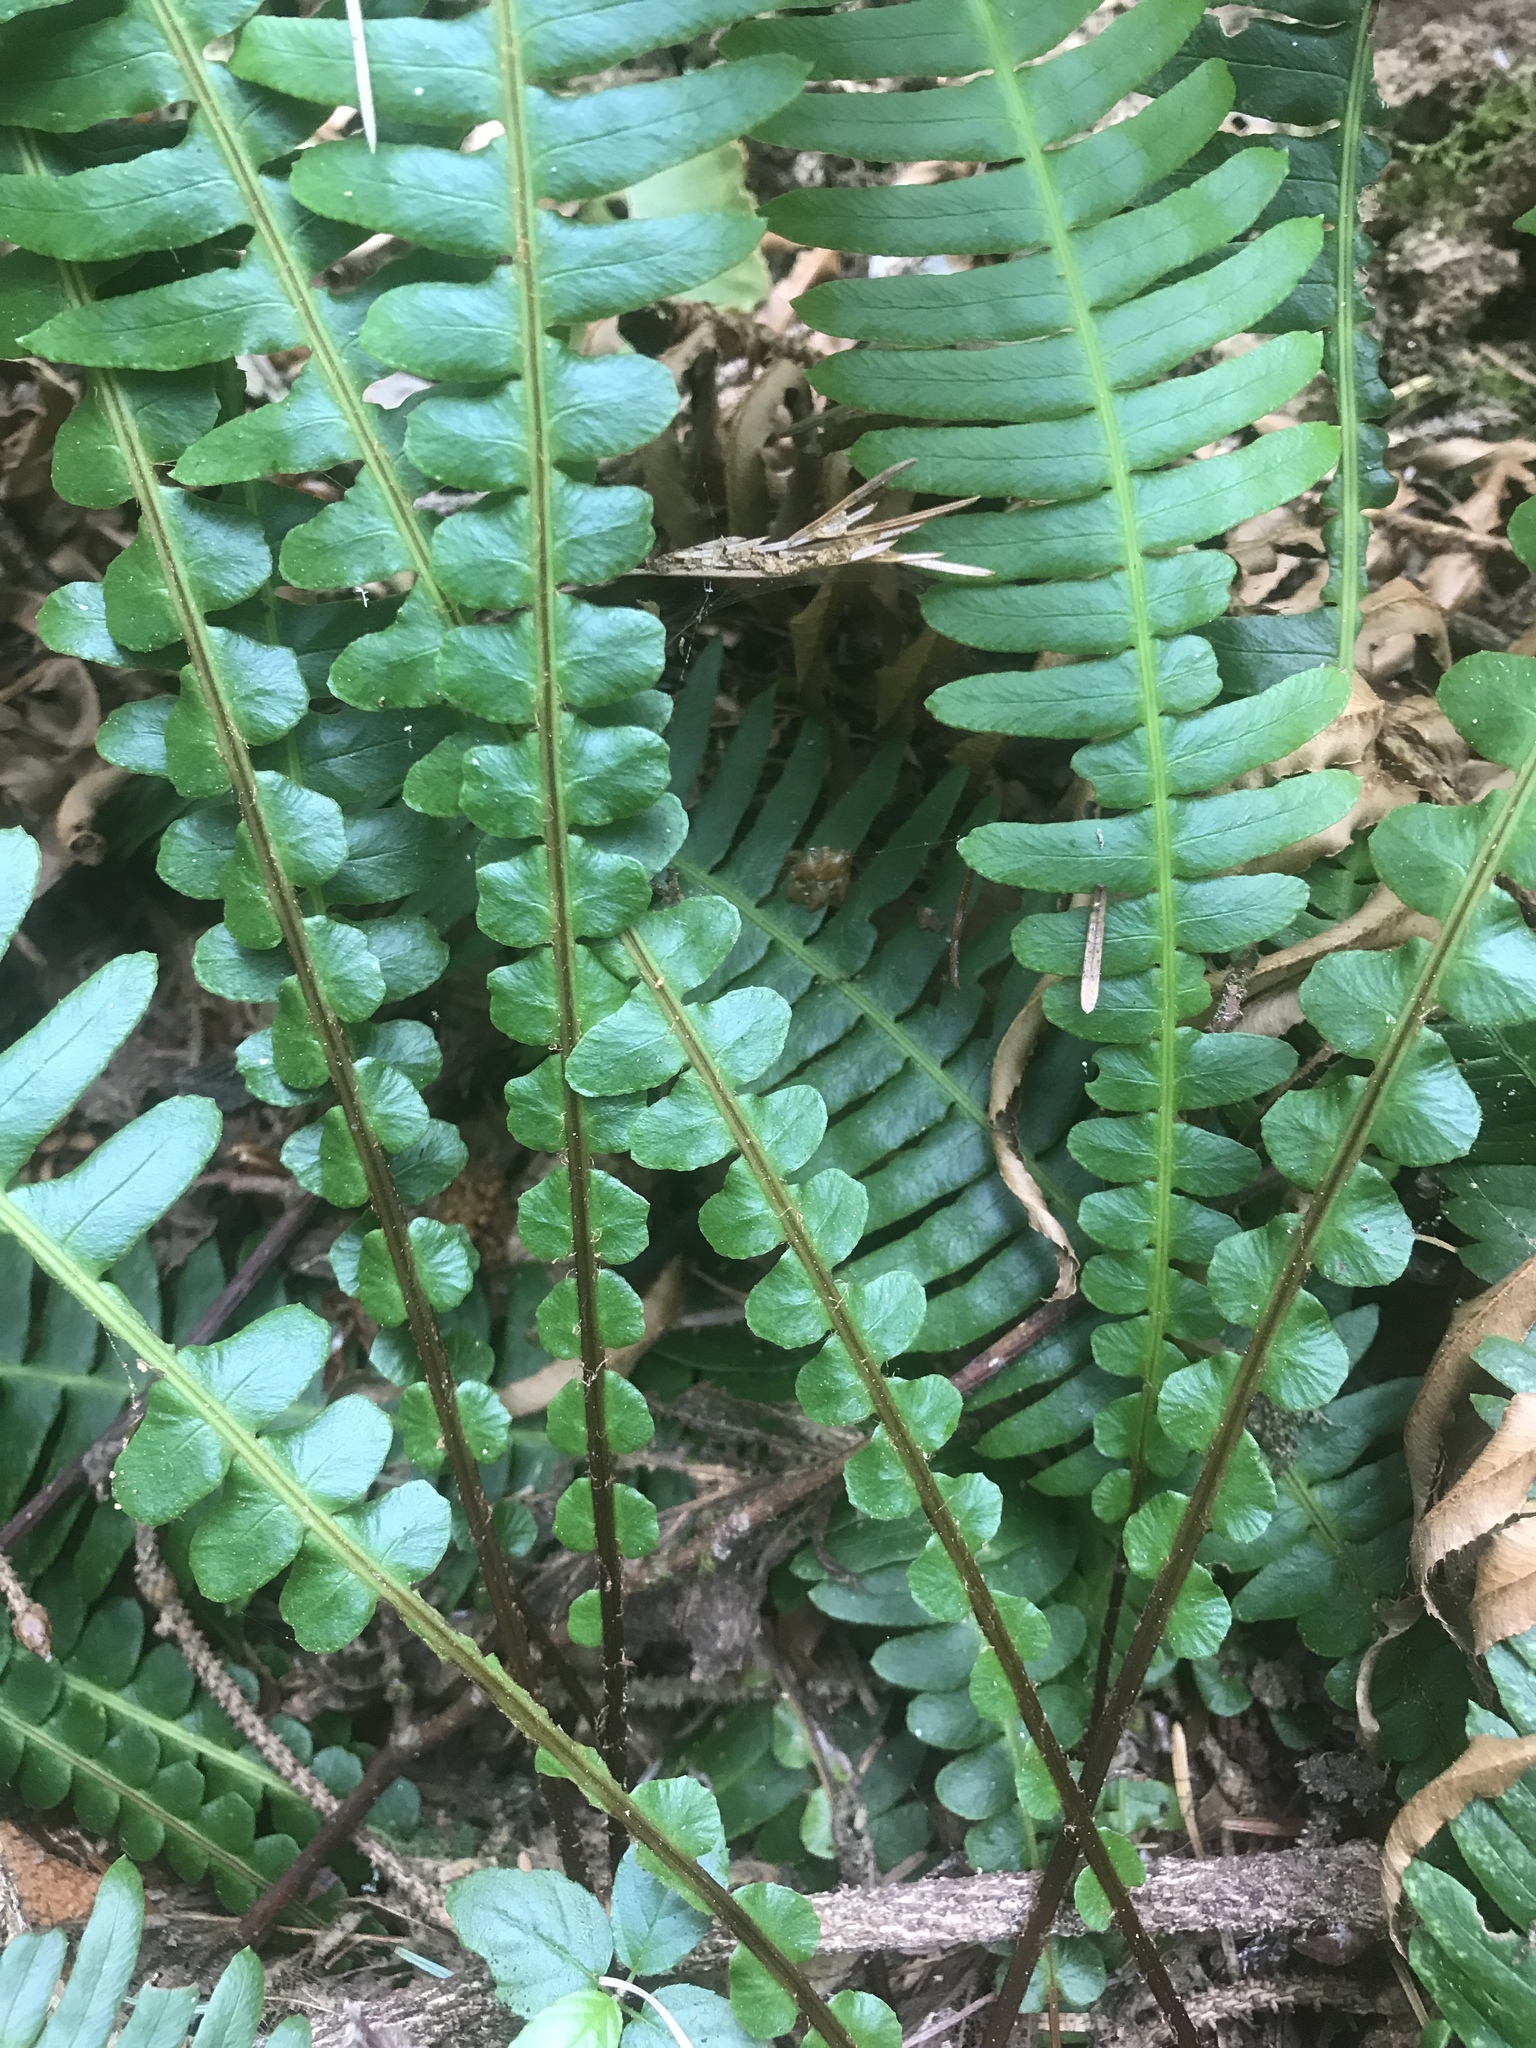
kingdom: Plantae
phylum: Tracheophyta
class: Polypodiopsida
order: Polypodiales
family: Blechnaceae
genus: Struthiopteris
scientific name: Struthiopteris spicant
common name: Deer fern
